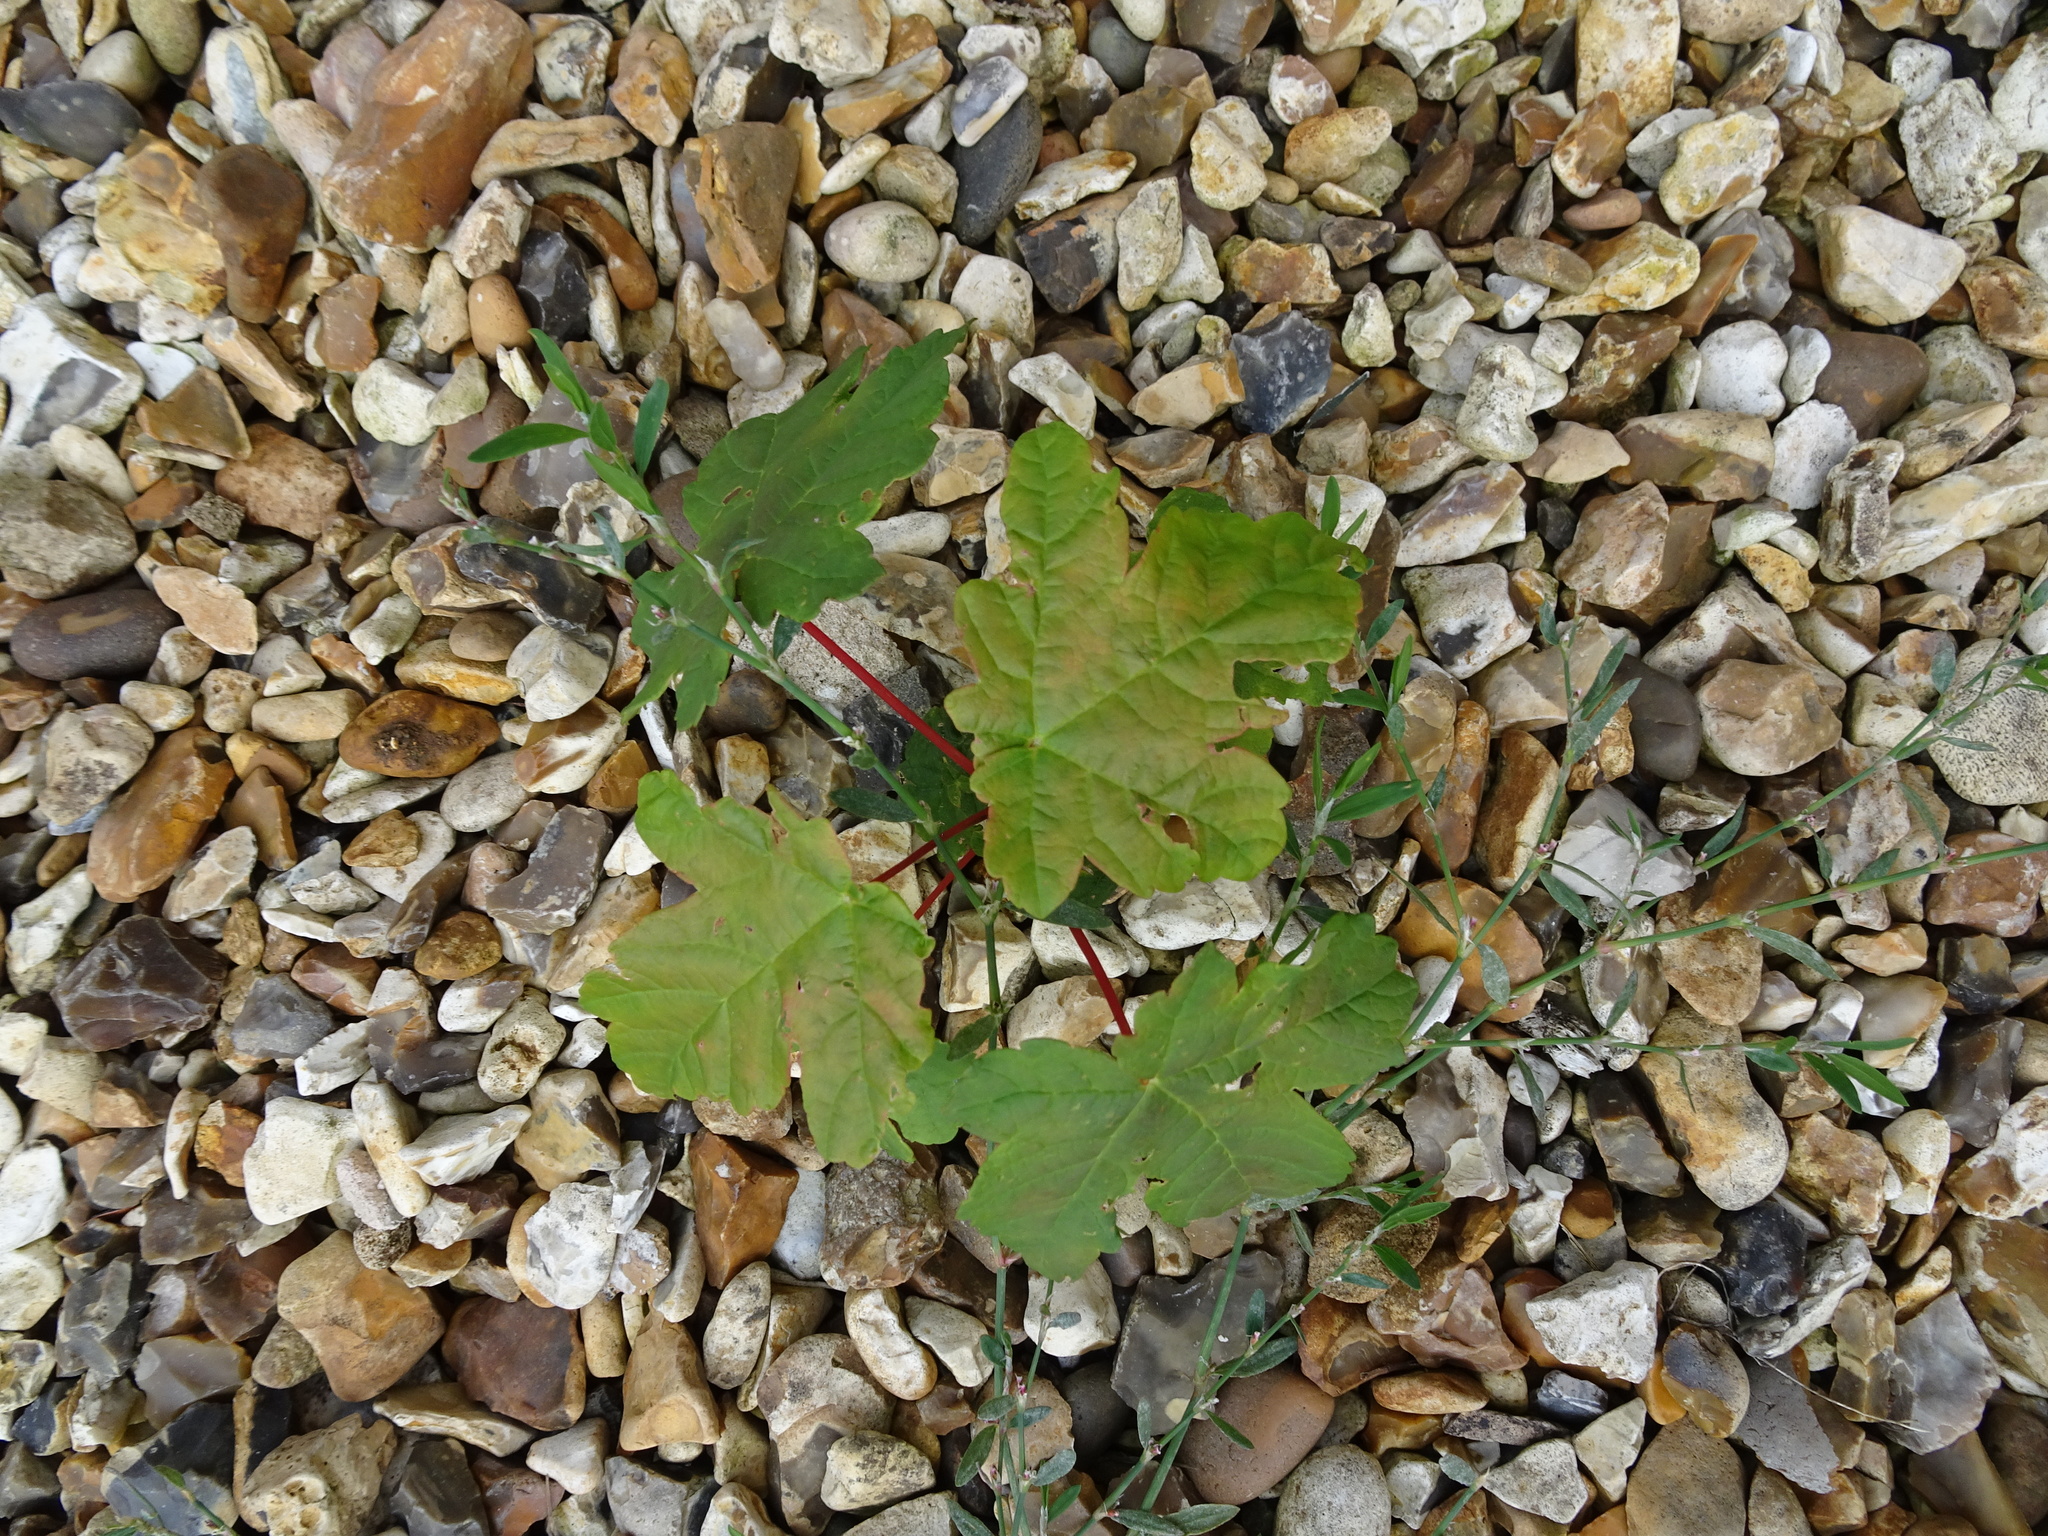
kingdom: Plantae
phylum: Tracheophyta
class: Magnoliopsida
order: Sapindales
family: Sapindaceae
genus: Acer
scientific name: Acer pseudoplatanus
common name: Sycamore
